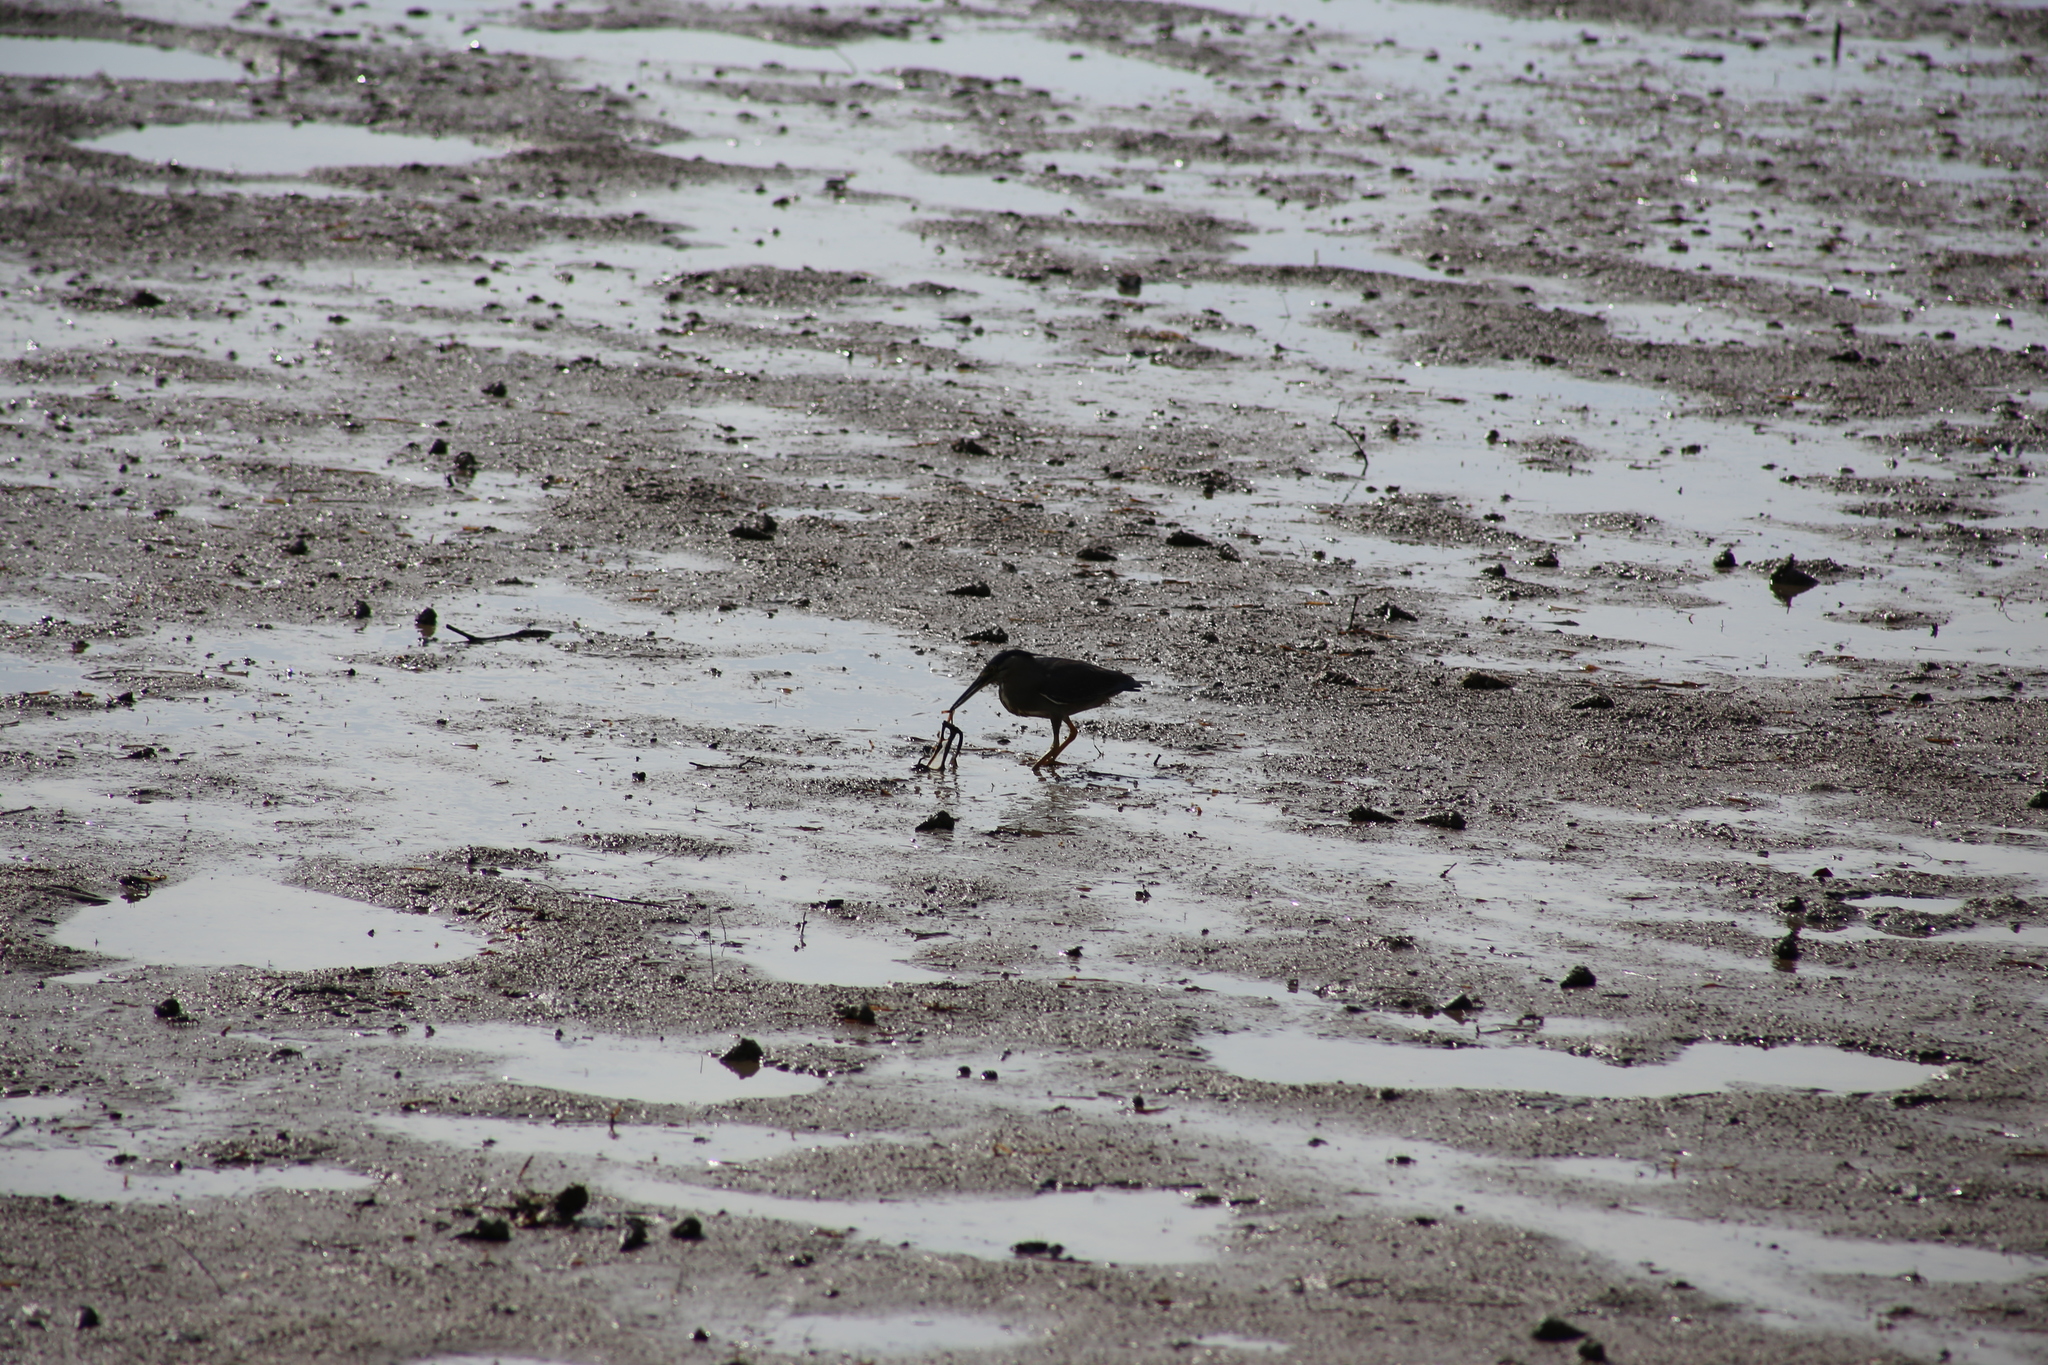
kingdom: Animalia
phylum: Chordata
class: Aves
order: Pelecaniformes
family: Ardeidae
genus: Butorides
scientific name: Butorides striata
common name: Striated heron
